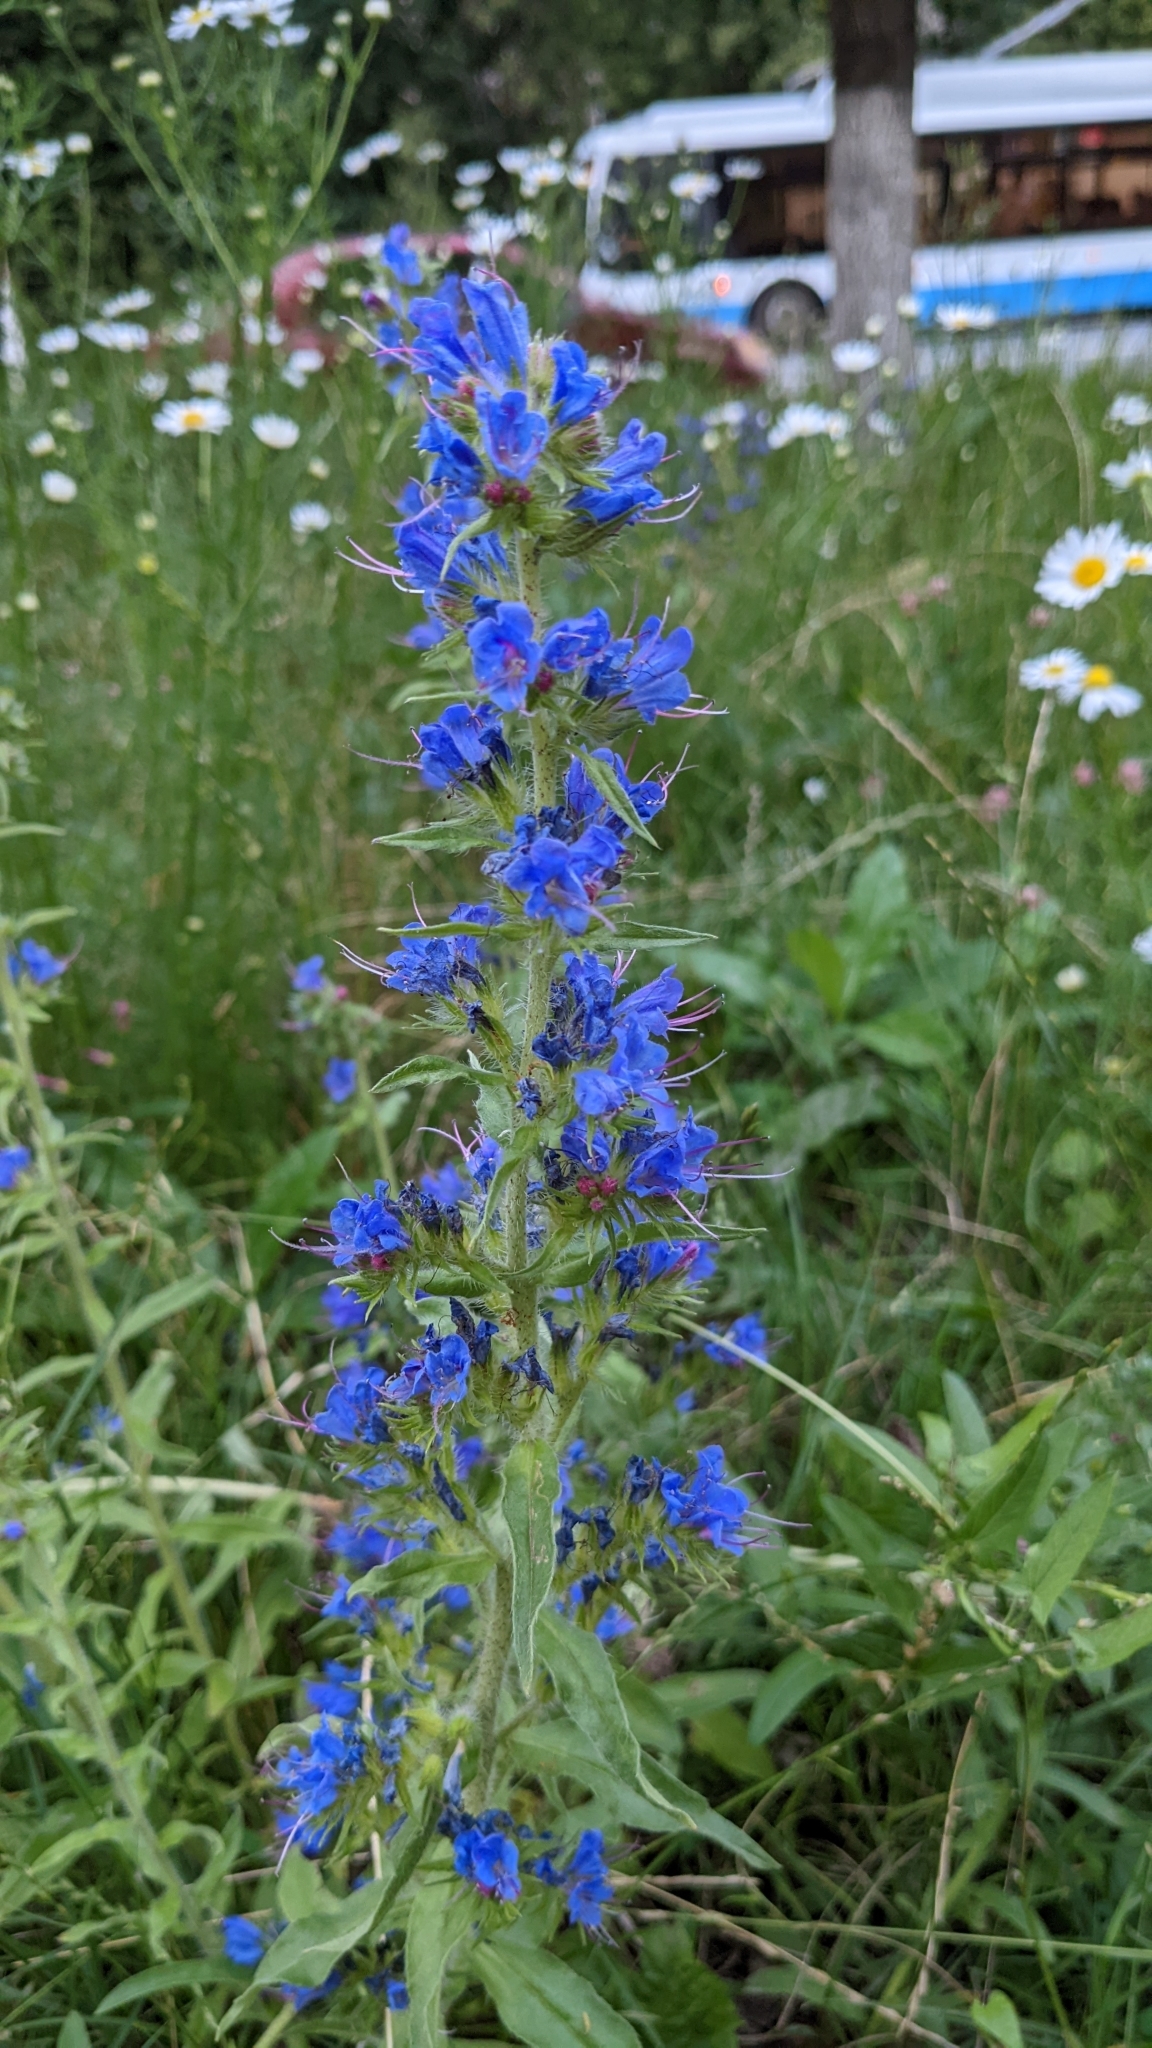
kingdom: Plantae
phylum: Tracheophyta
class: Magnoliopsida
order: Boraginales
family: Boraginaceae
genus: Echium
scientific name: Echium vulgare
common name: Common viper's bugloss
